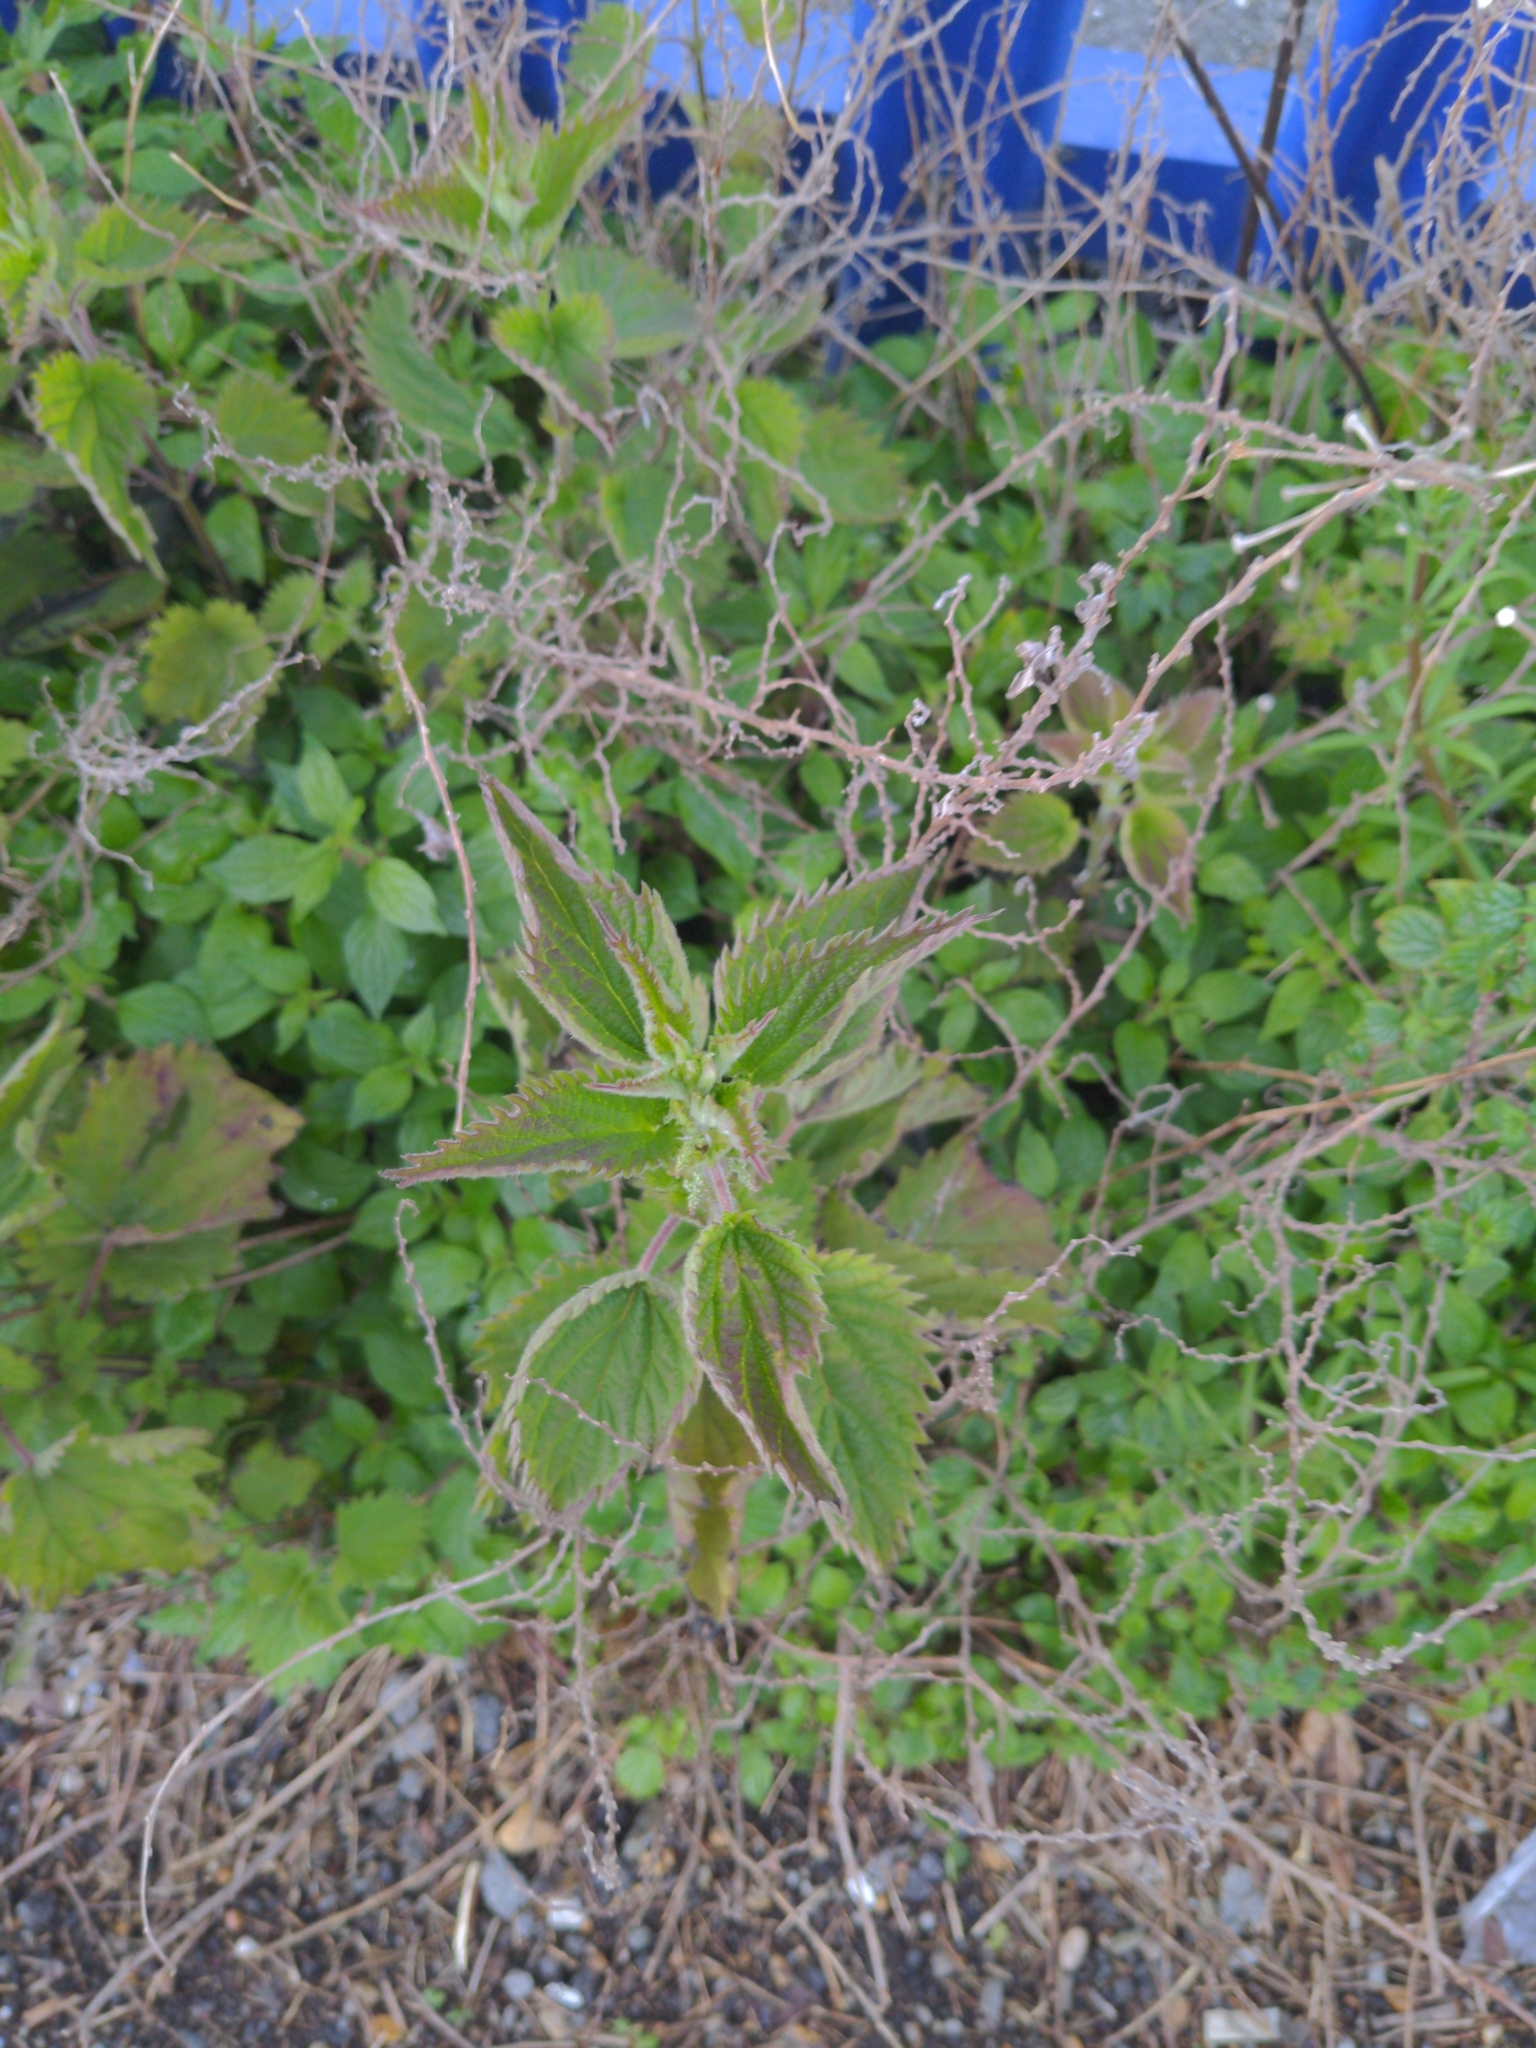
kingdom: Plantae
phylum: Tracheophyta
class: Magnoliopsida
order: Rosales
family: Urticaceae
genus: Urtica
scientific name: Urtica dioica
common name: Common nettle
